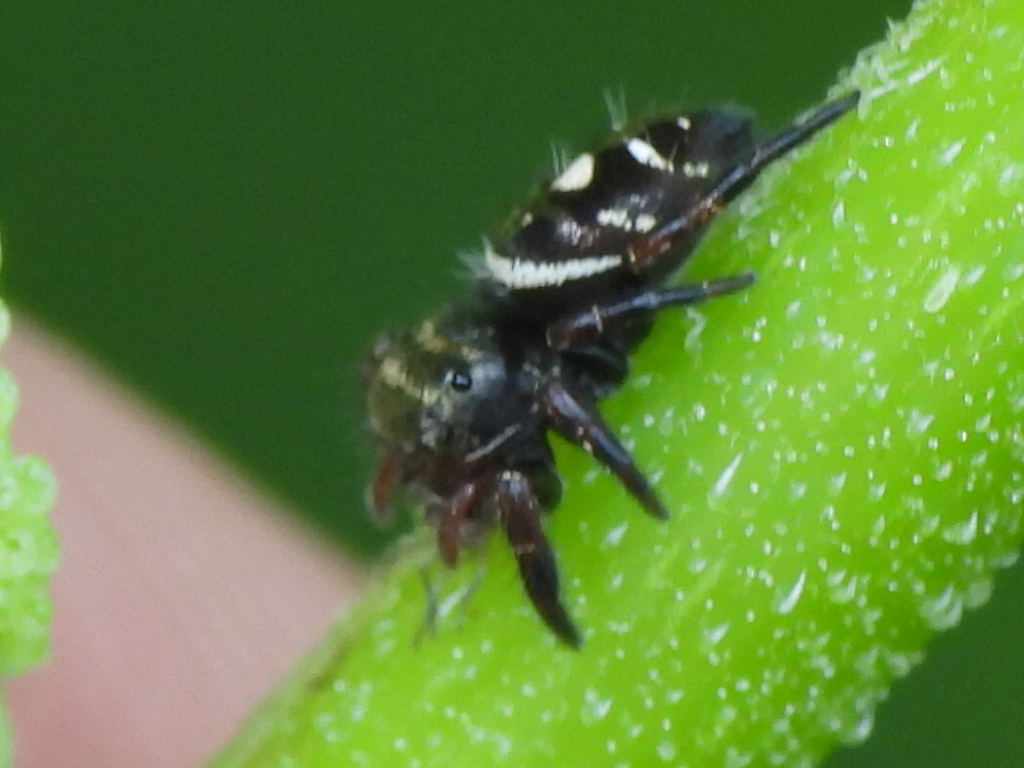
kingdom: Animalia
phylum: Arthropoda
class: Arachnida
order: Araneae
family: Salticidae
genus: Phidippus
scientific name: Phidippus audax
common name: Bold jumper
